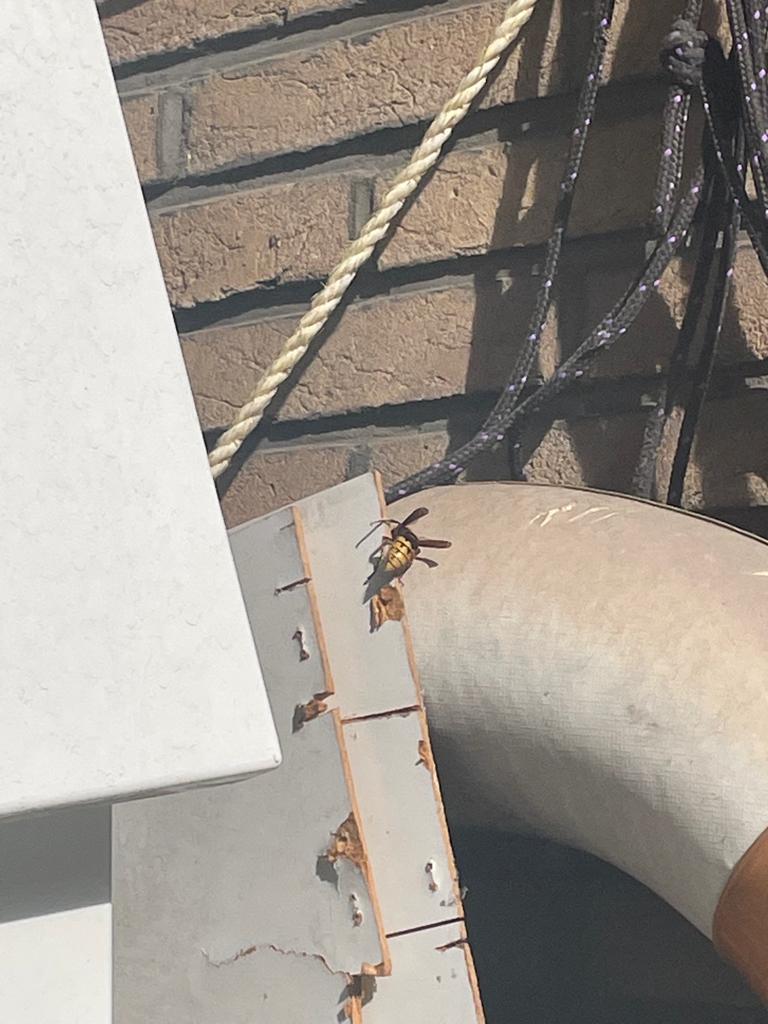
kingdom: Animalia
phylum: Arthropoda
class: Insecta
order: Hymenoptera
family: Vespidae
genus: Vespa
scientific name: Vespa crabro
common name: Hornet
